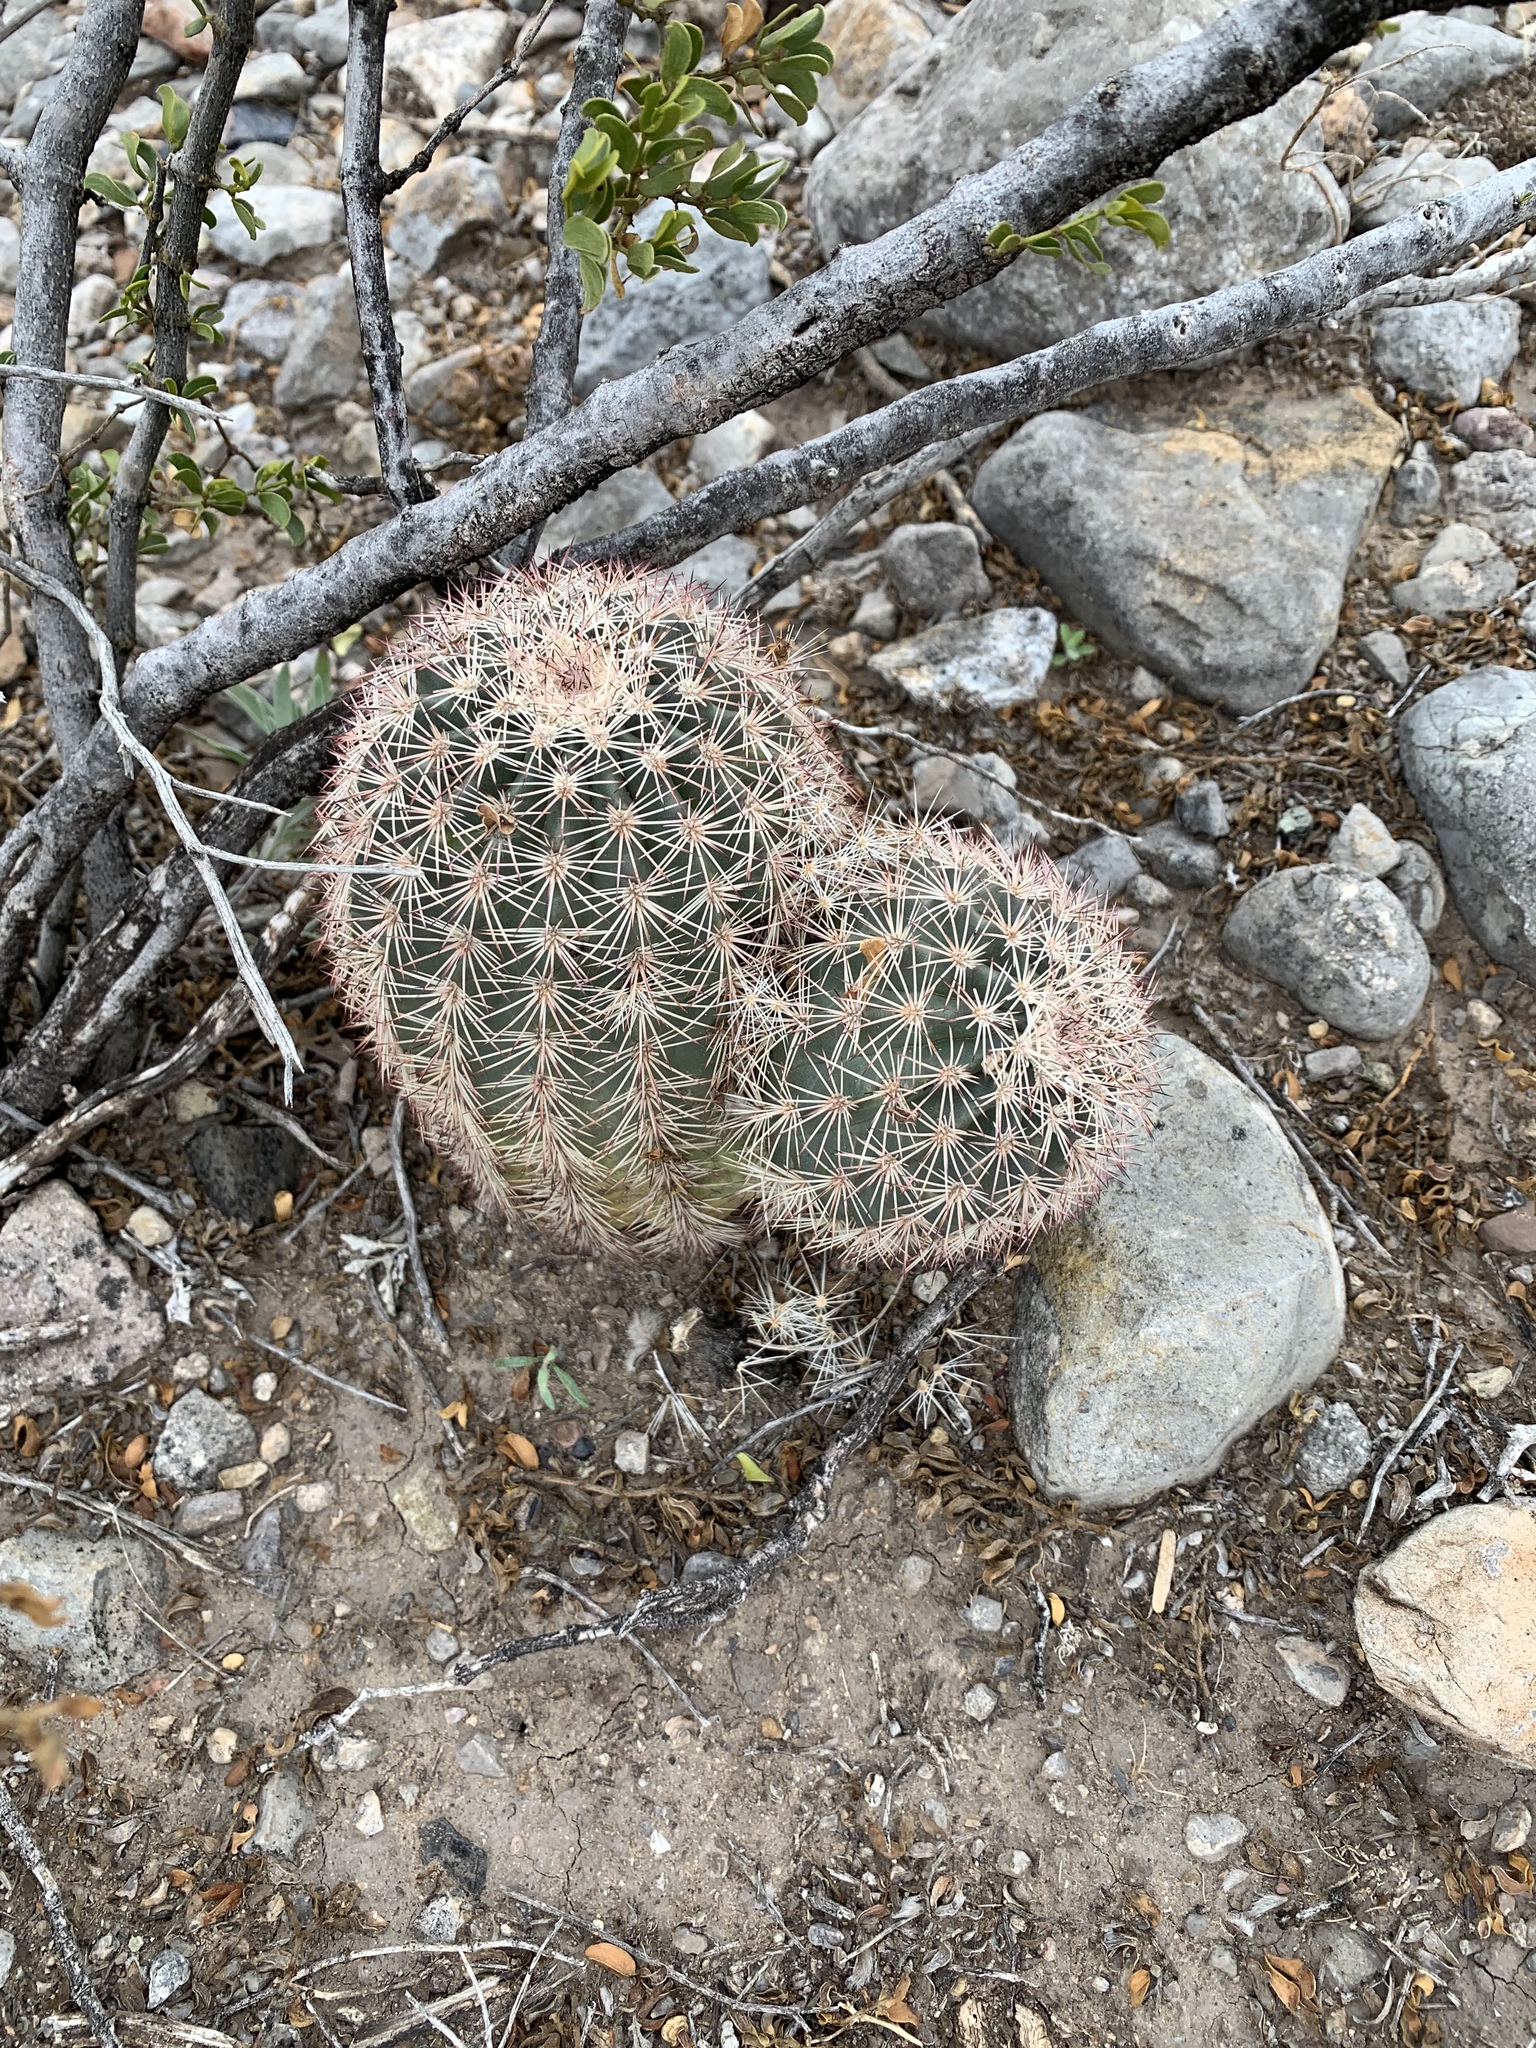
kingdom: Plantae
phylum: Tracheophyta
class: Magnoliopsida
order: Caryophyllales
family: Cactaceae
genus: Echinocereus
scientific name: Echinocereus dasyacanthus
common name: Spiny hedgehog cactus
